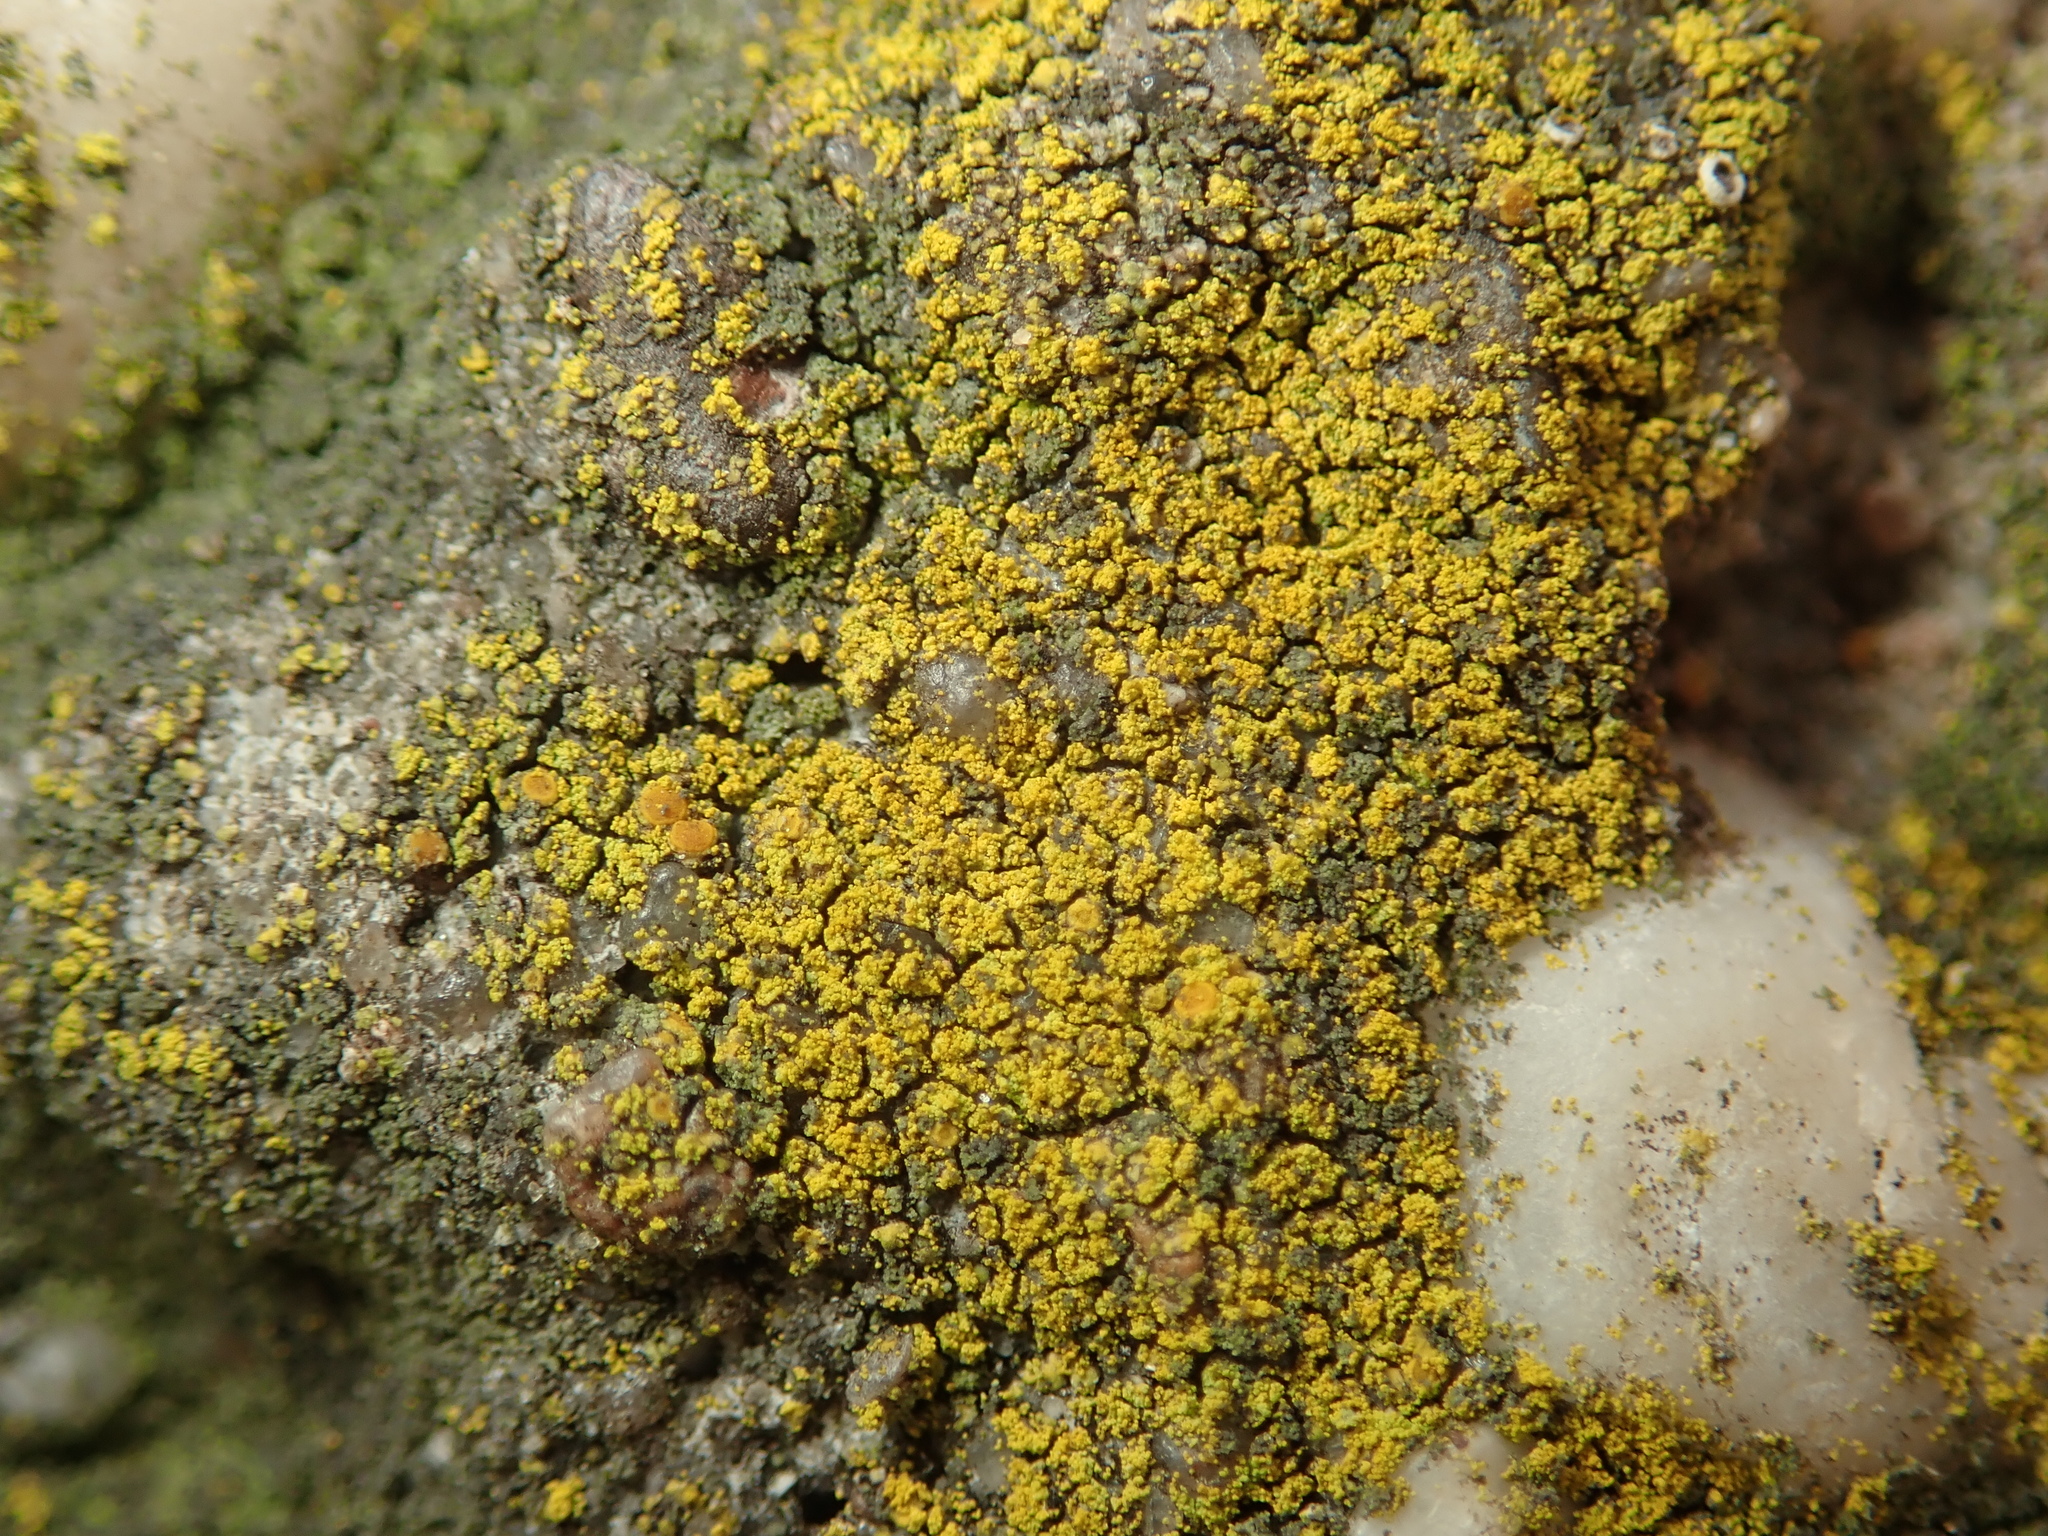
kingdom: Fungi
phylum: Ascomycota
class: Lecanoromycetes
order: Teloschistales
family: Teloschistaceae
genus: Flavoplaca
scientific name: Flavoplaca
